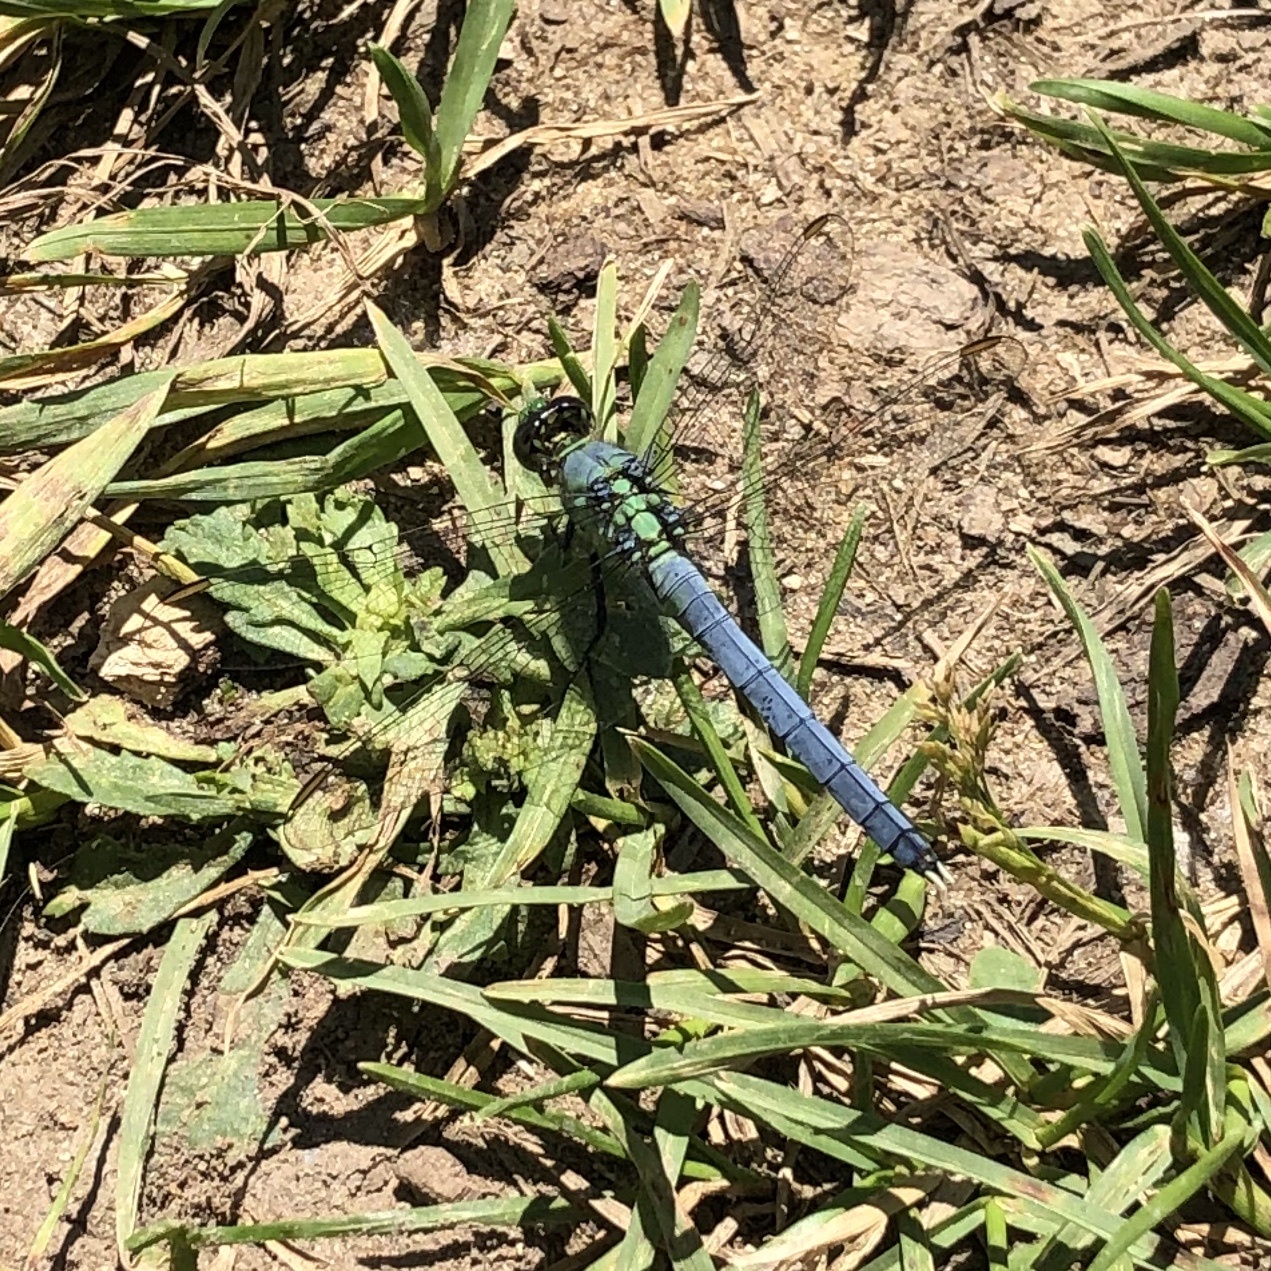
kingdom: Animalia
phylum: Arthropoda
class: Insecta
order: Odonata
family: Libellulidae
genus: Erythemis
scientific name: Erythemis simplicicollis
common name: Eastern pondhawk
